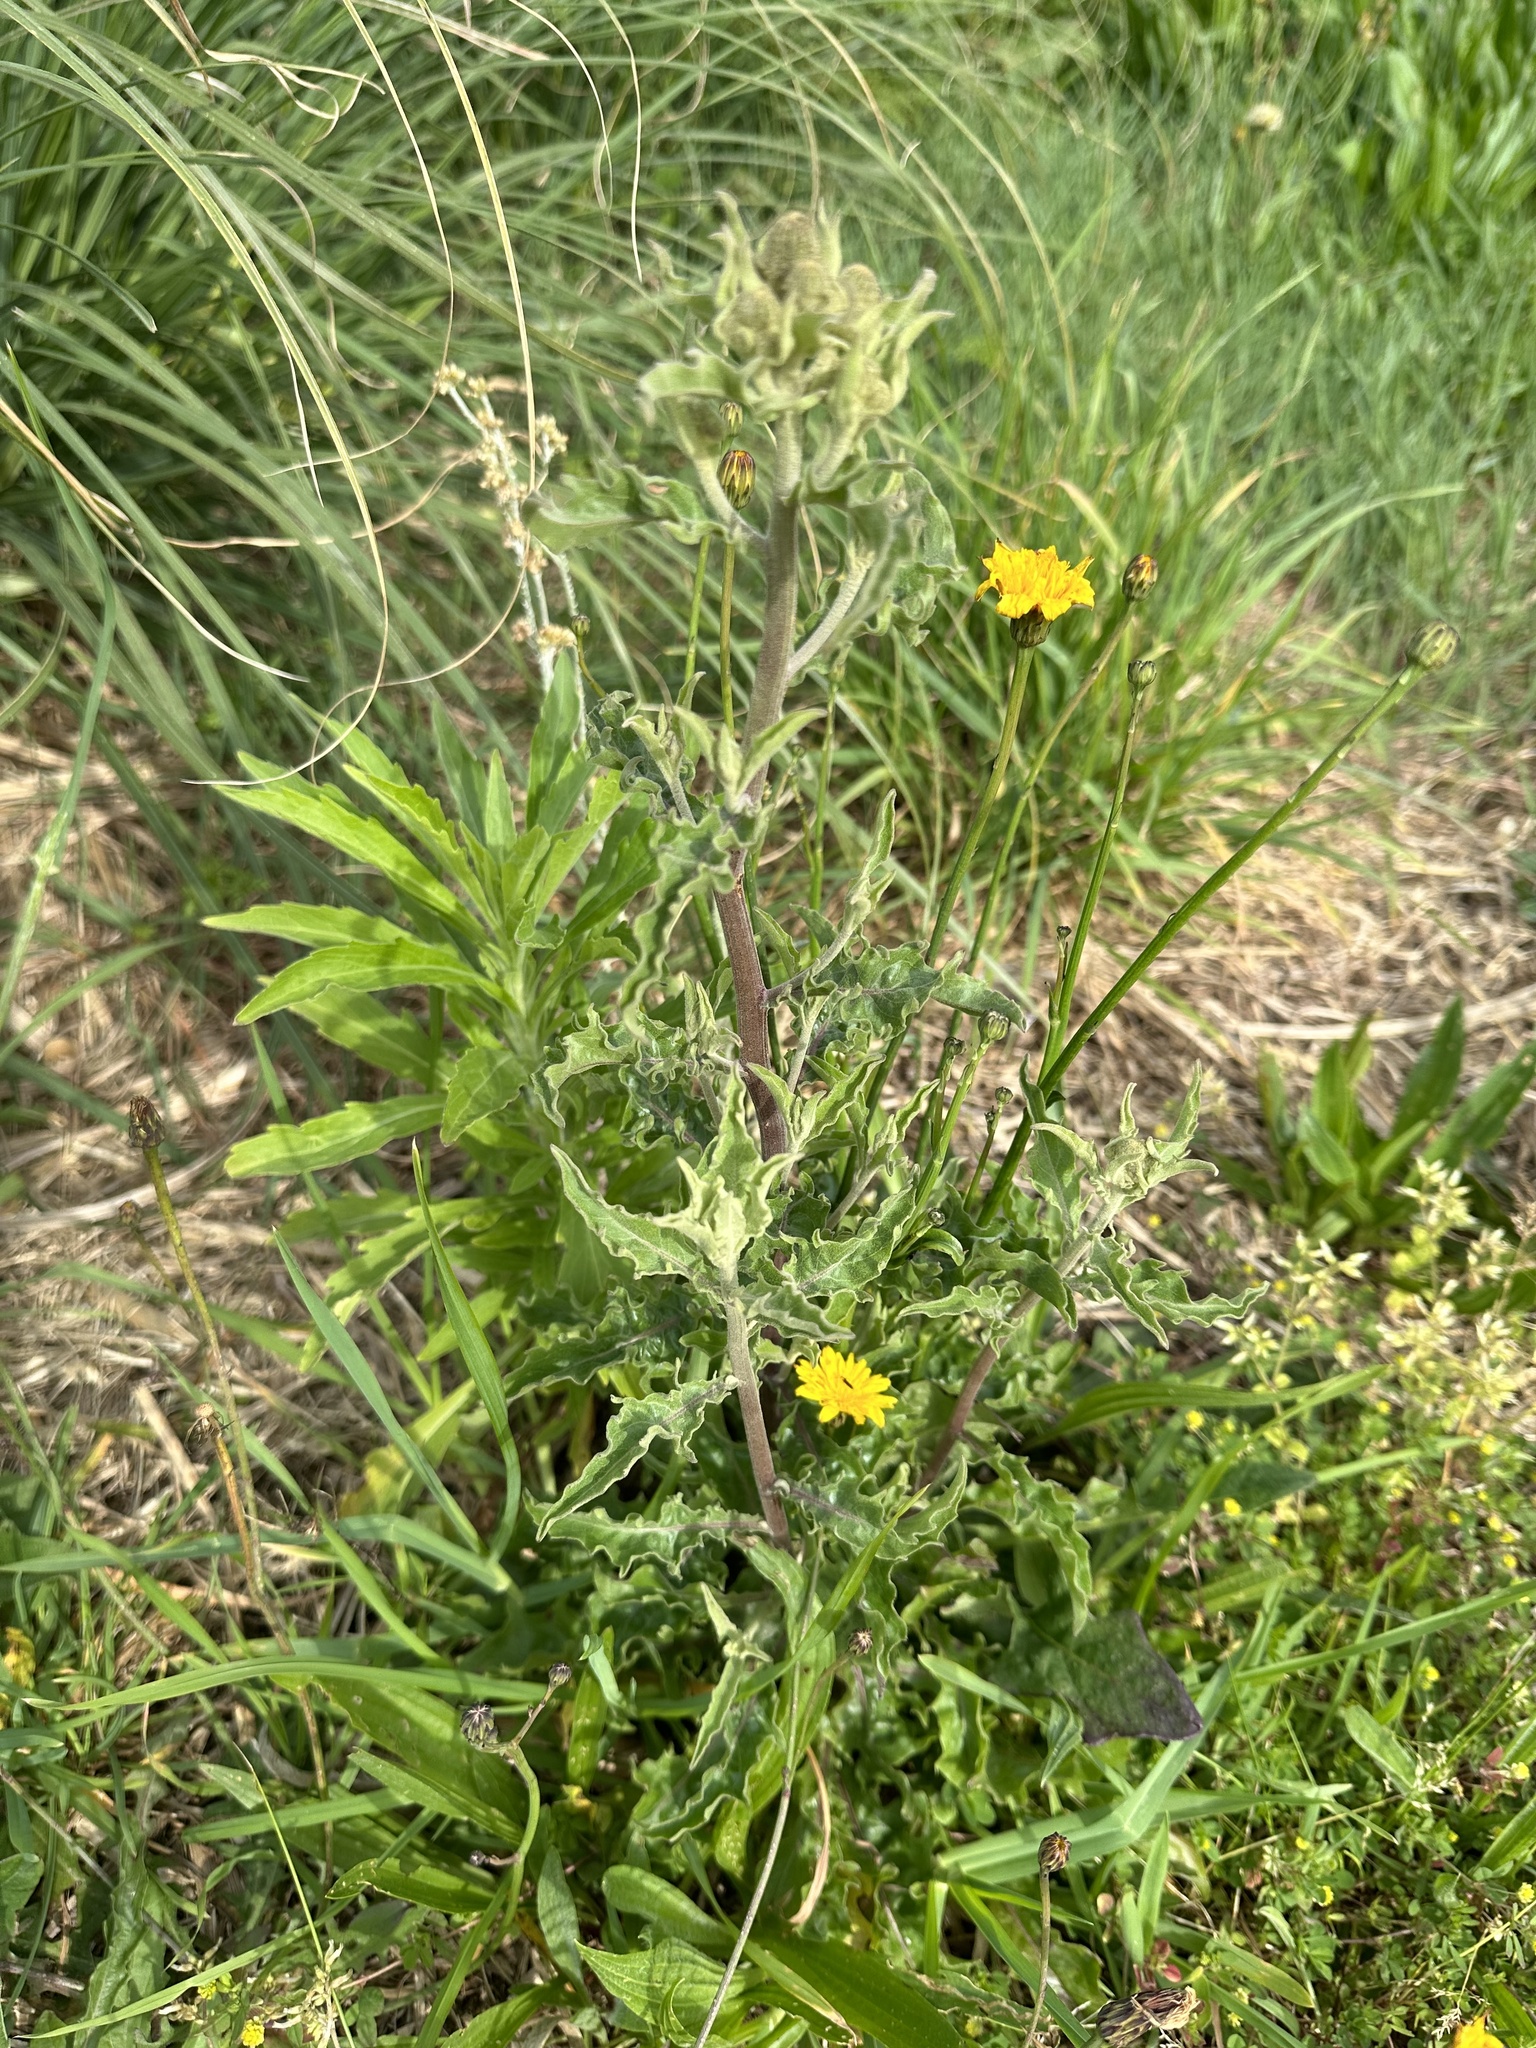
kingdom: Plantae
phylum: Tracheophyta
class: Magnoliopsida
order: Asterales
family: Asteraceae
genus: Andryala
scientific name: Andryala integrifolia
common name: Common andryala
